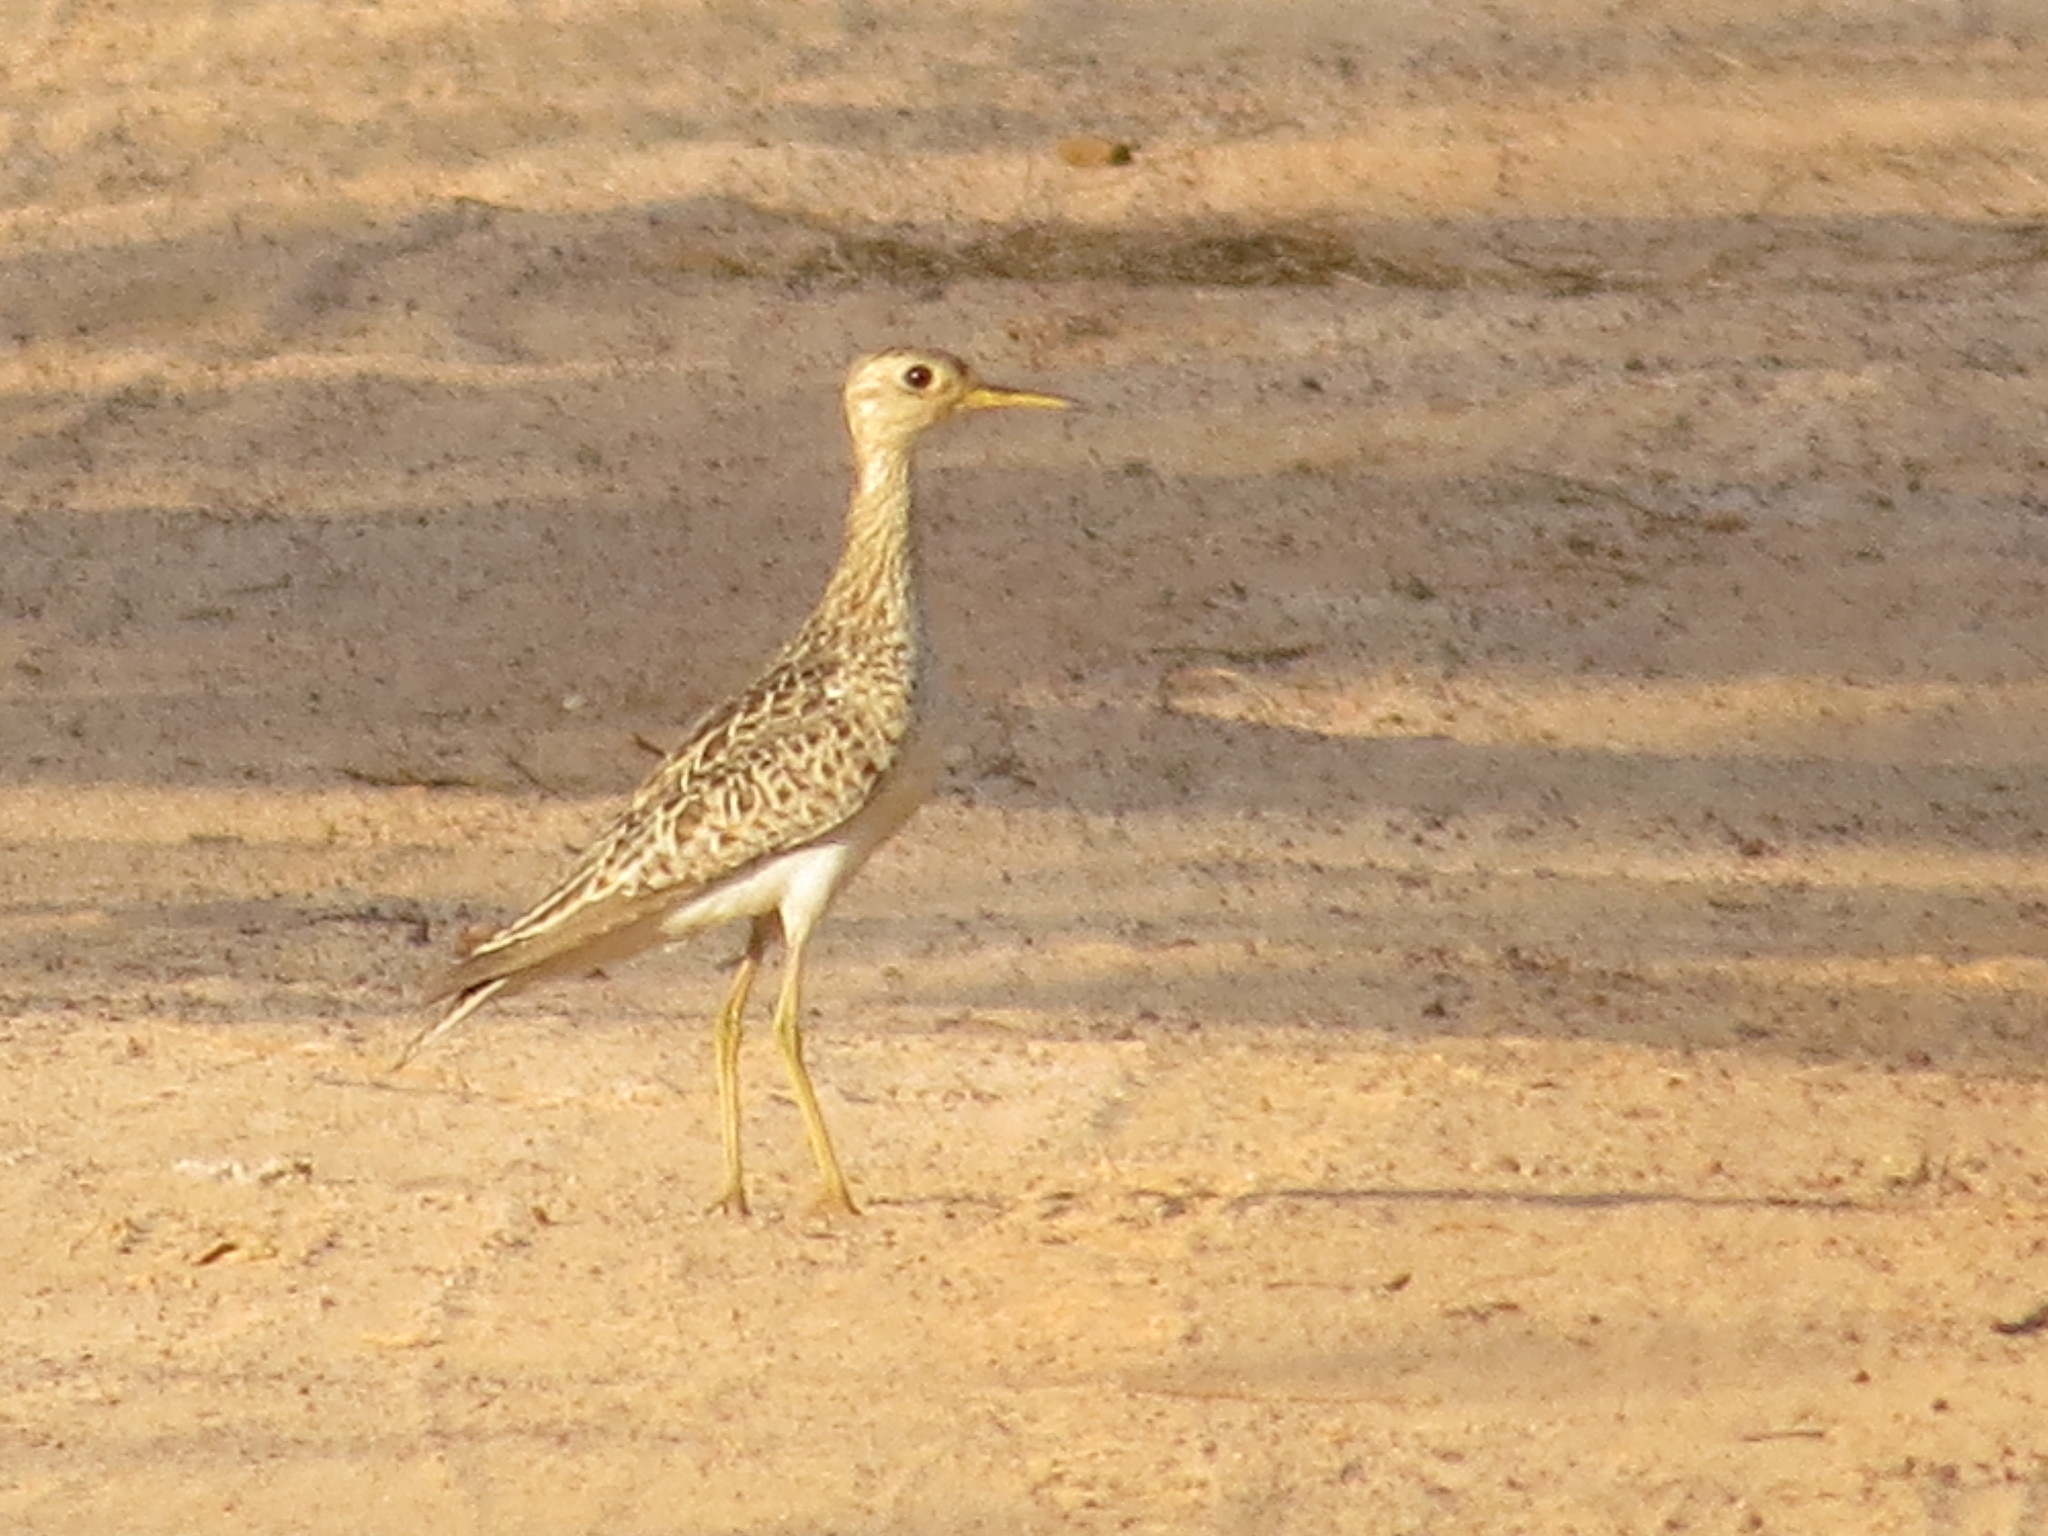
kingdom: Animalia
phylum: Chordata
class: Aves
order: Charadriiformes
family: Scolopacidae
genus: Bartramia
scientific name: Bartramia longicauda
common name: Upland sandpiper
